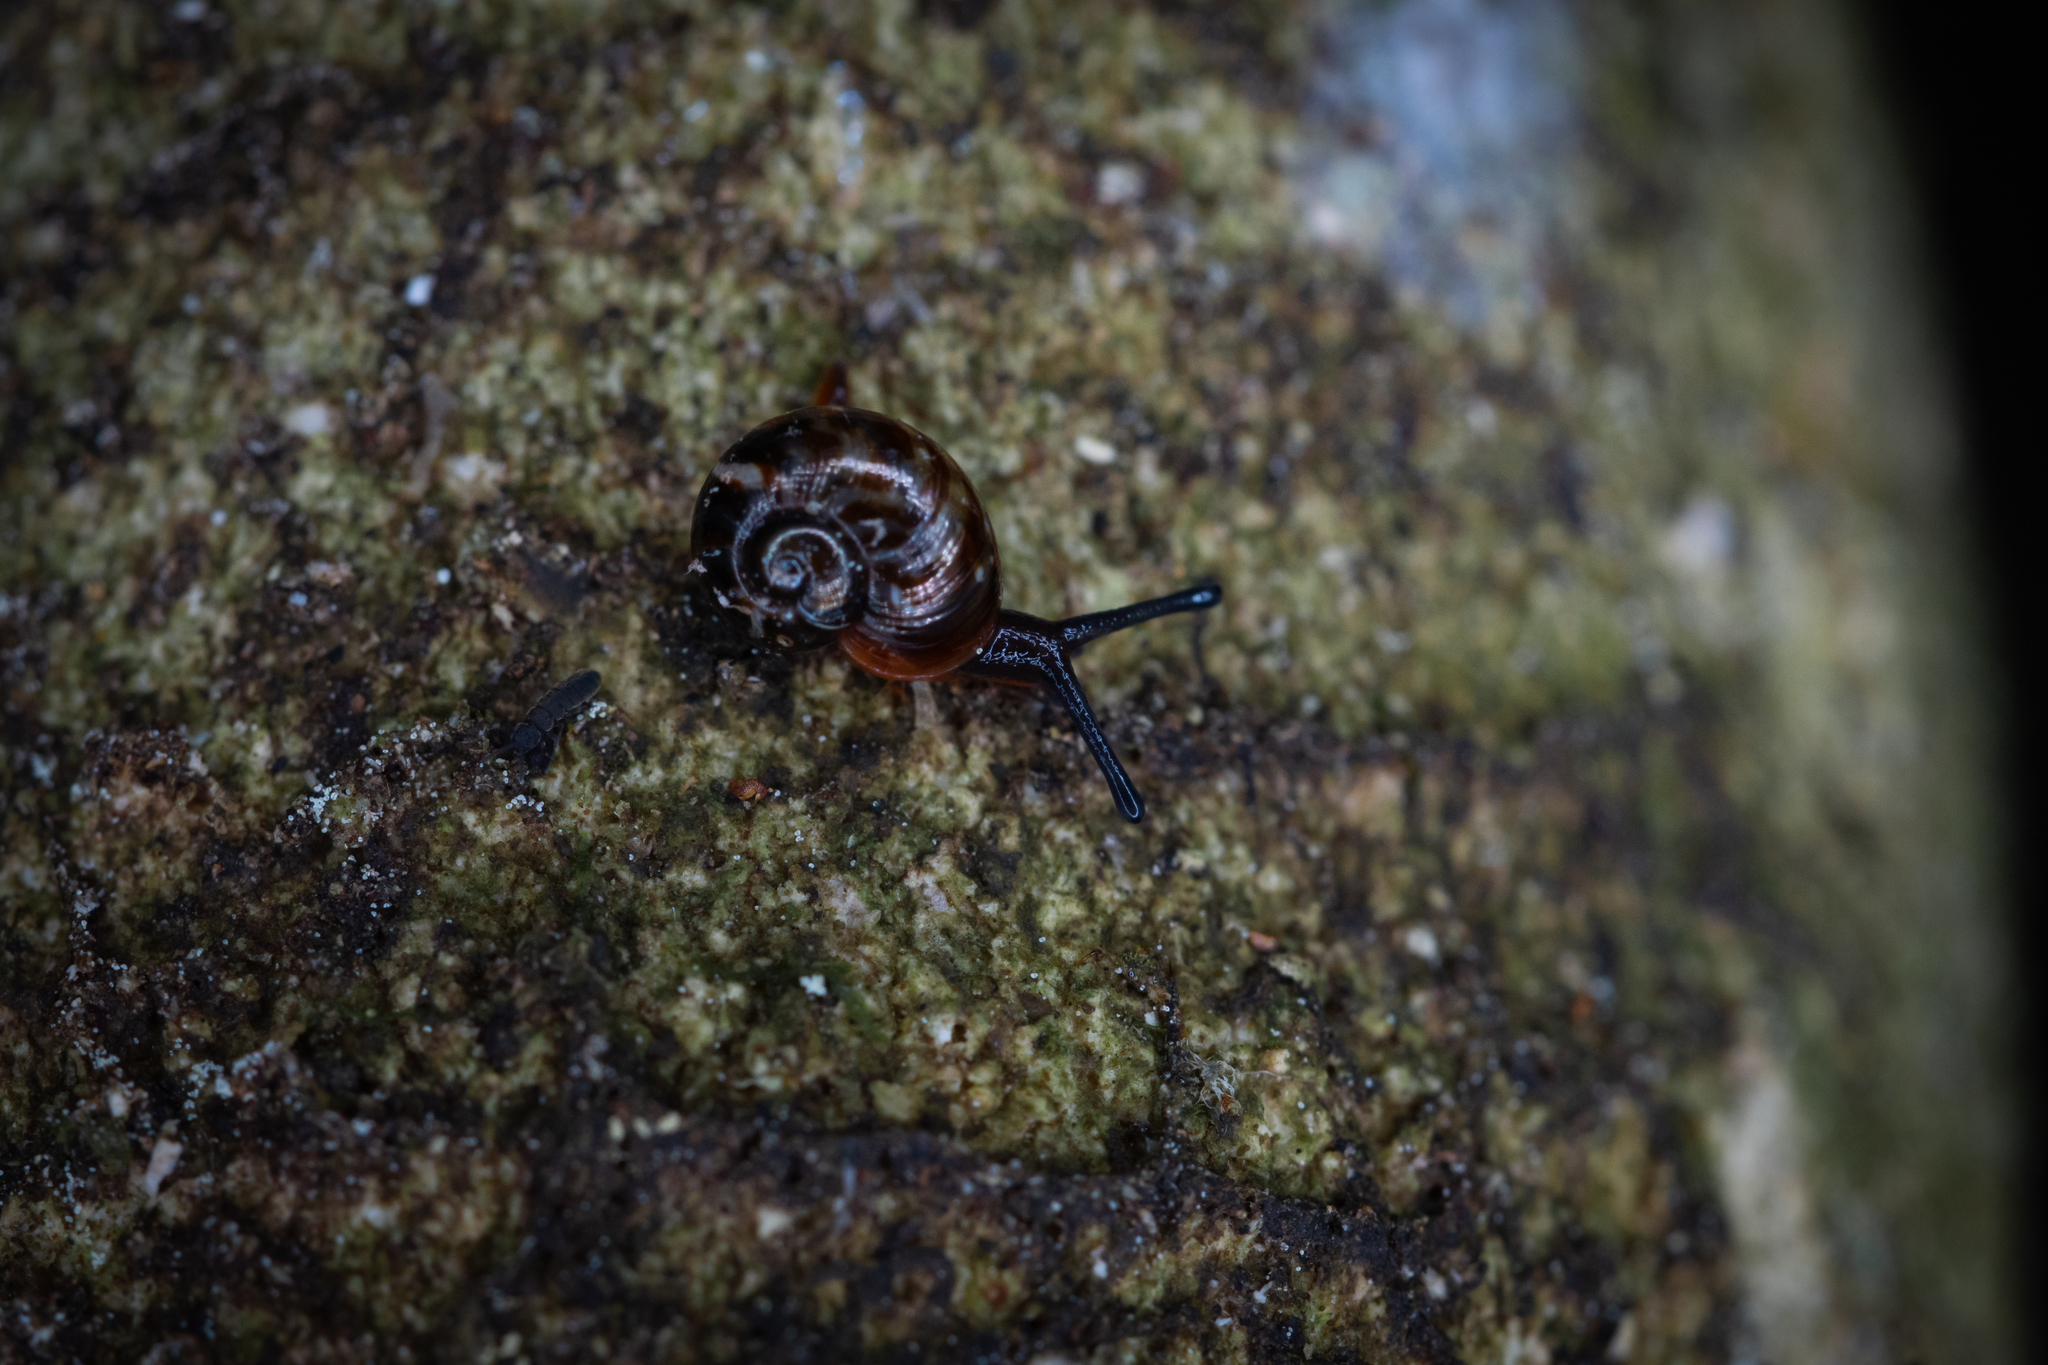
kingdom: Animalia
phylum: Mollusca
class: Gastropoda
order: Stylommatophora
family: Charopidae
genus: Flammulina
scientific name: Flammulina zebra
